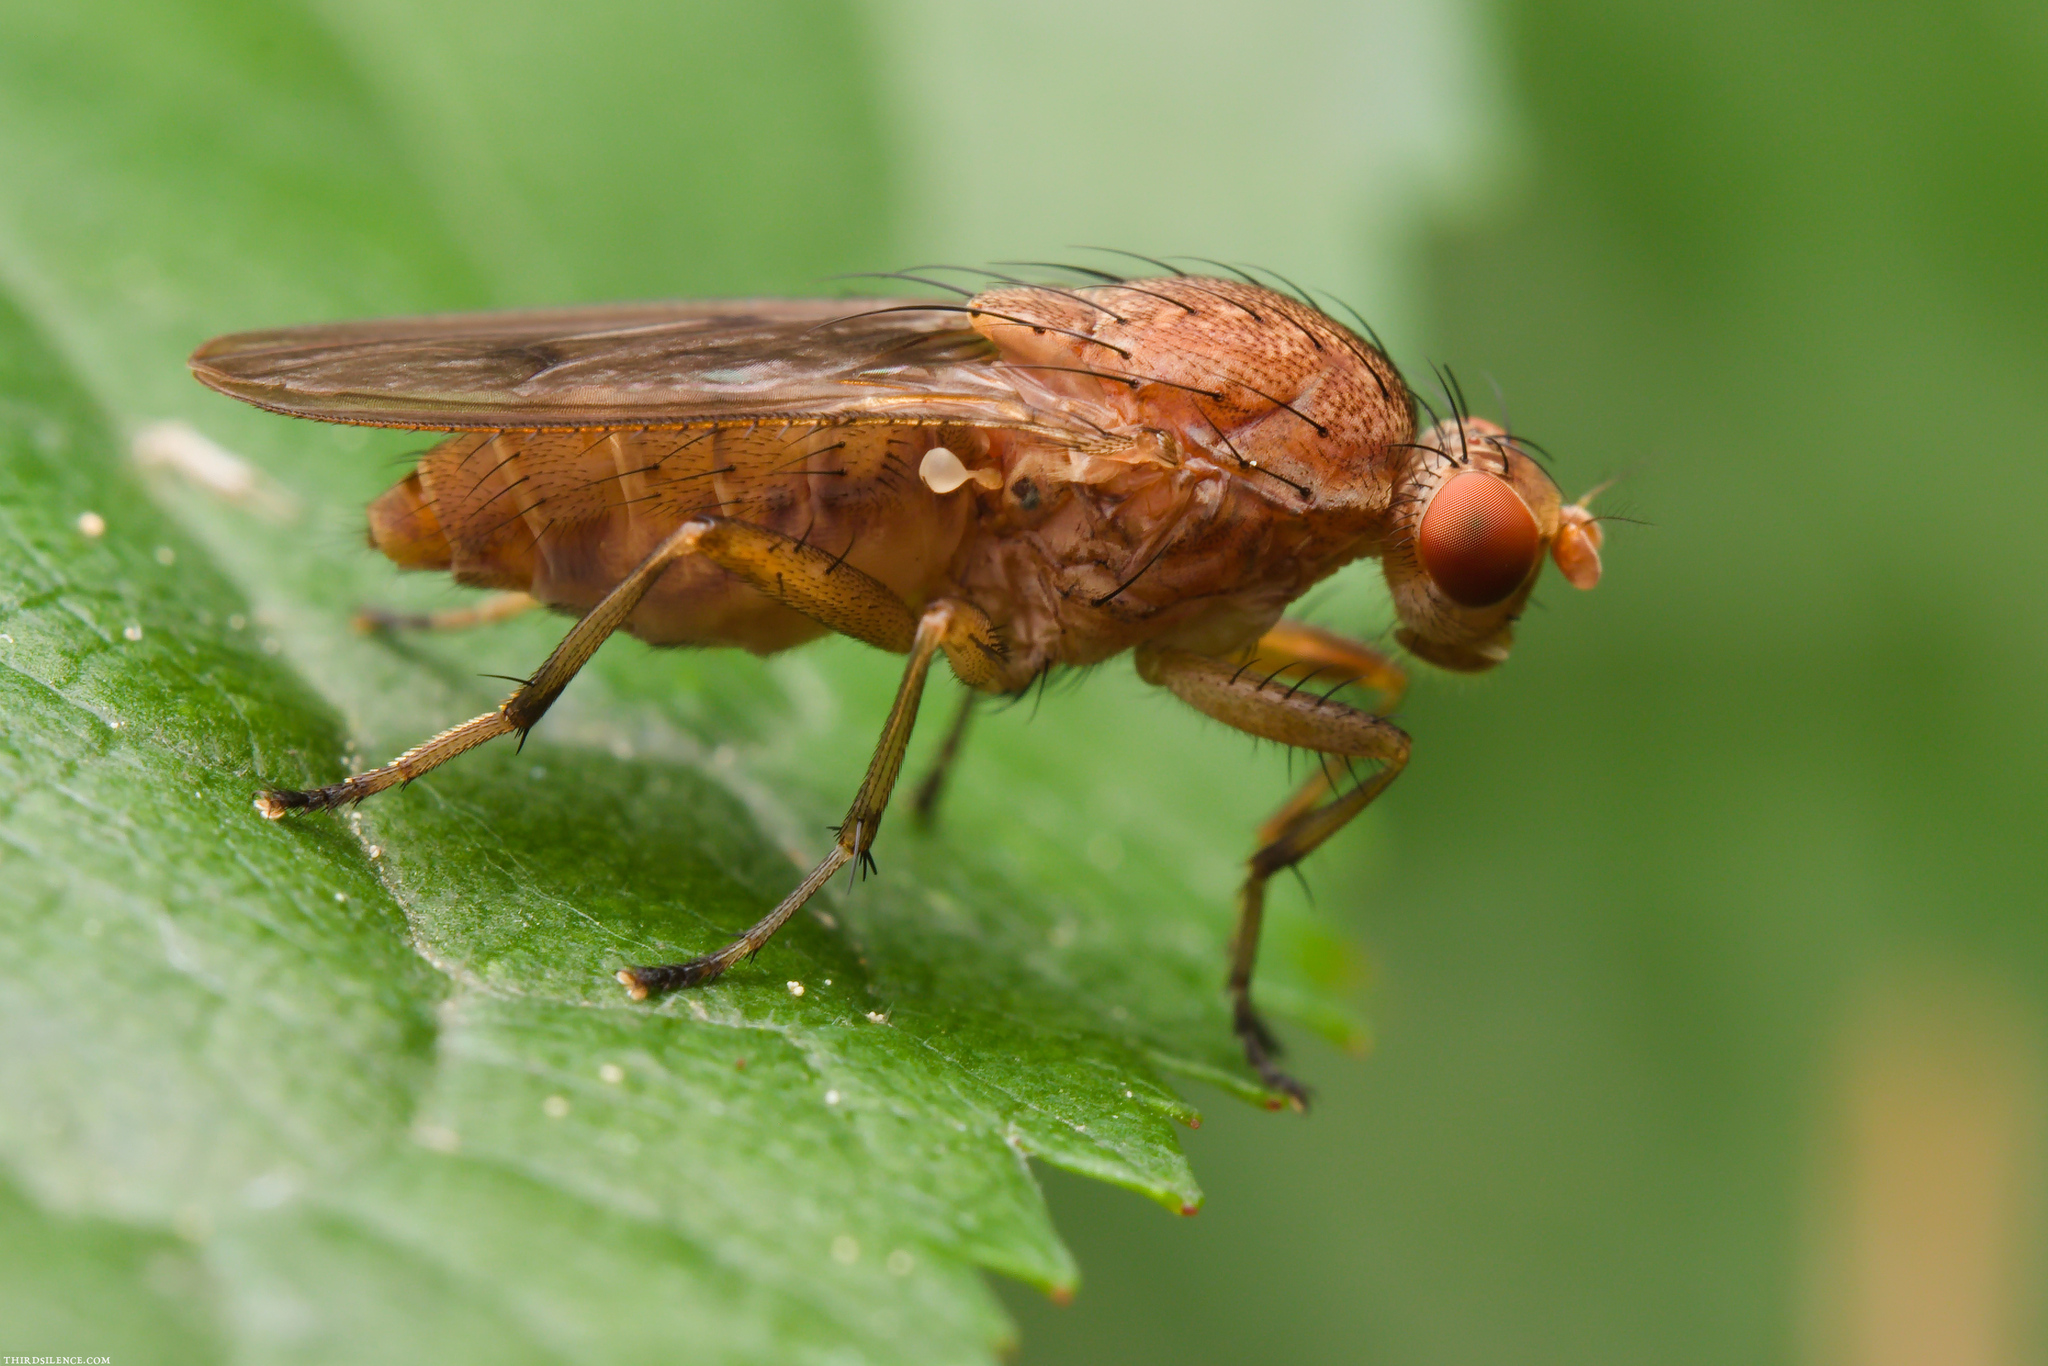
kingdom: Animalia
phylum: Arthropoda
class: Insecta
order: Diptera
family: Heleomyzidae
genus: Suillia
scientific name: Suillia affinis
